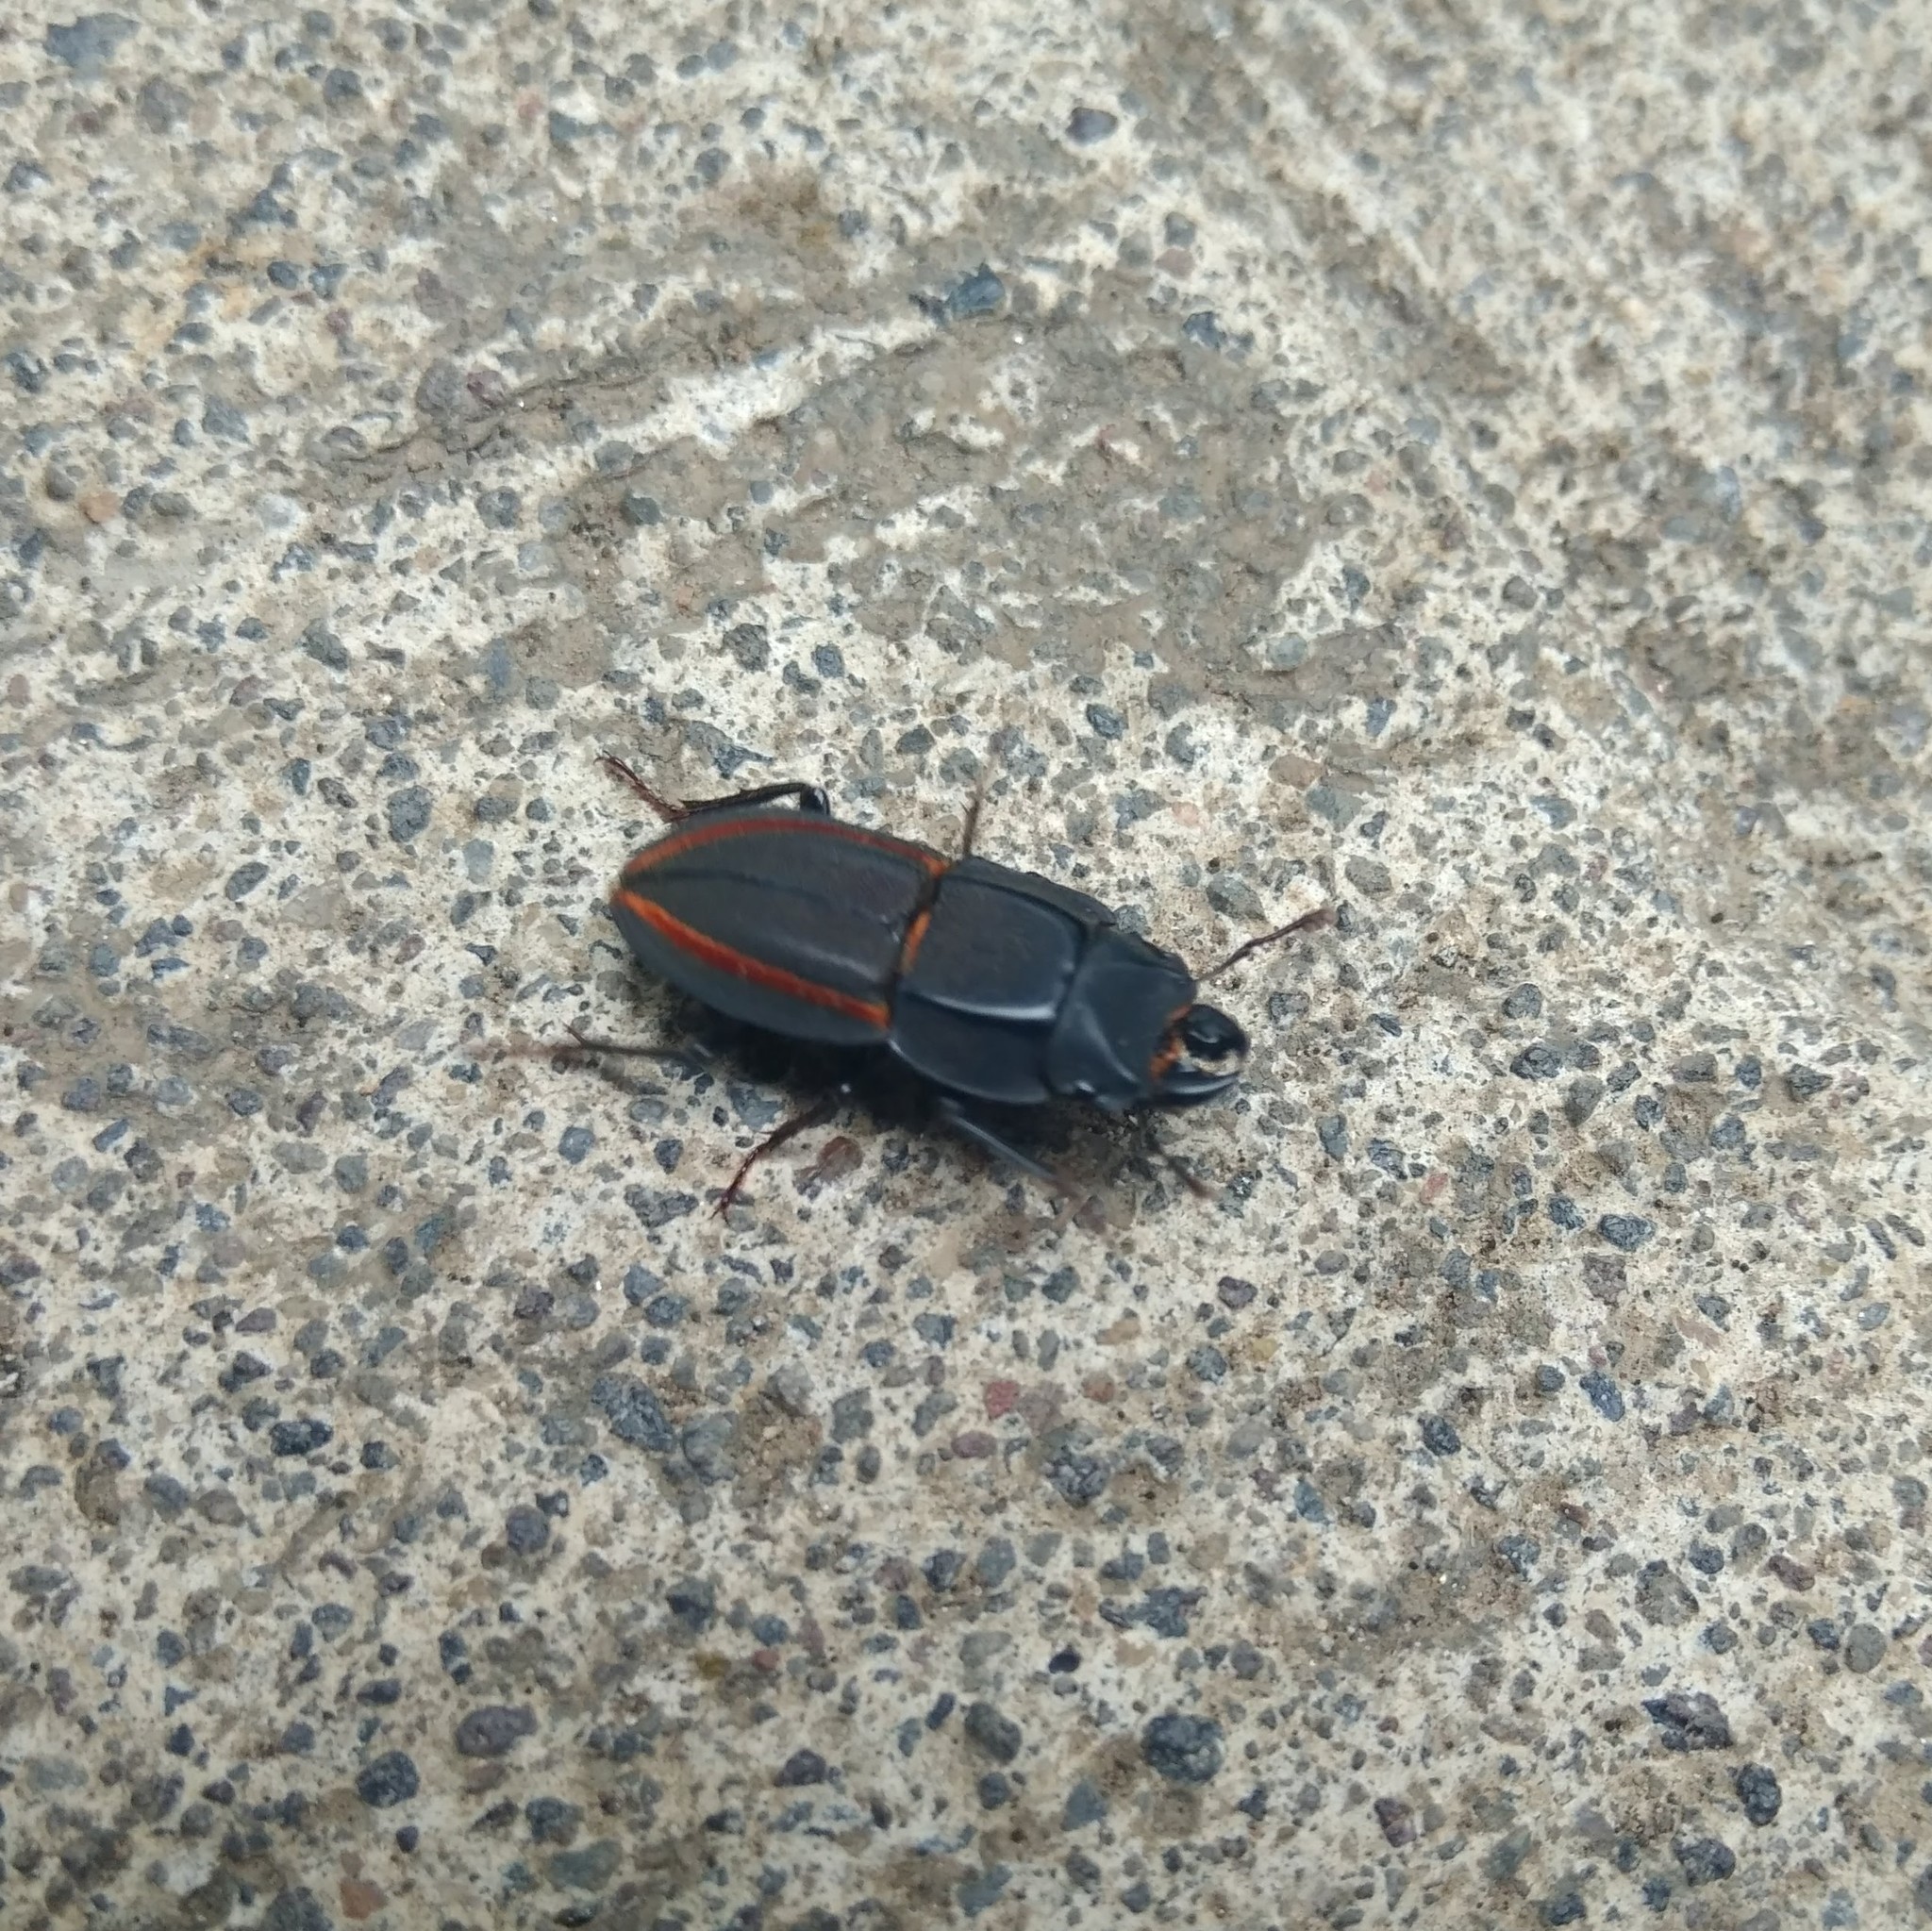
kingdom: Animalia
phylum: Arthropoda
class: Insecta
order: Coleoptera
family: Lucanidae
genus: Erichius
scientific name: Erichius vittatus
